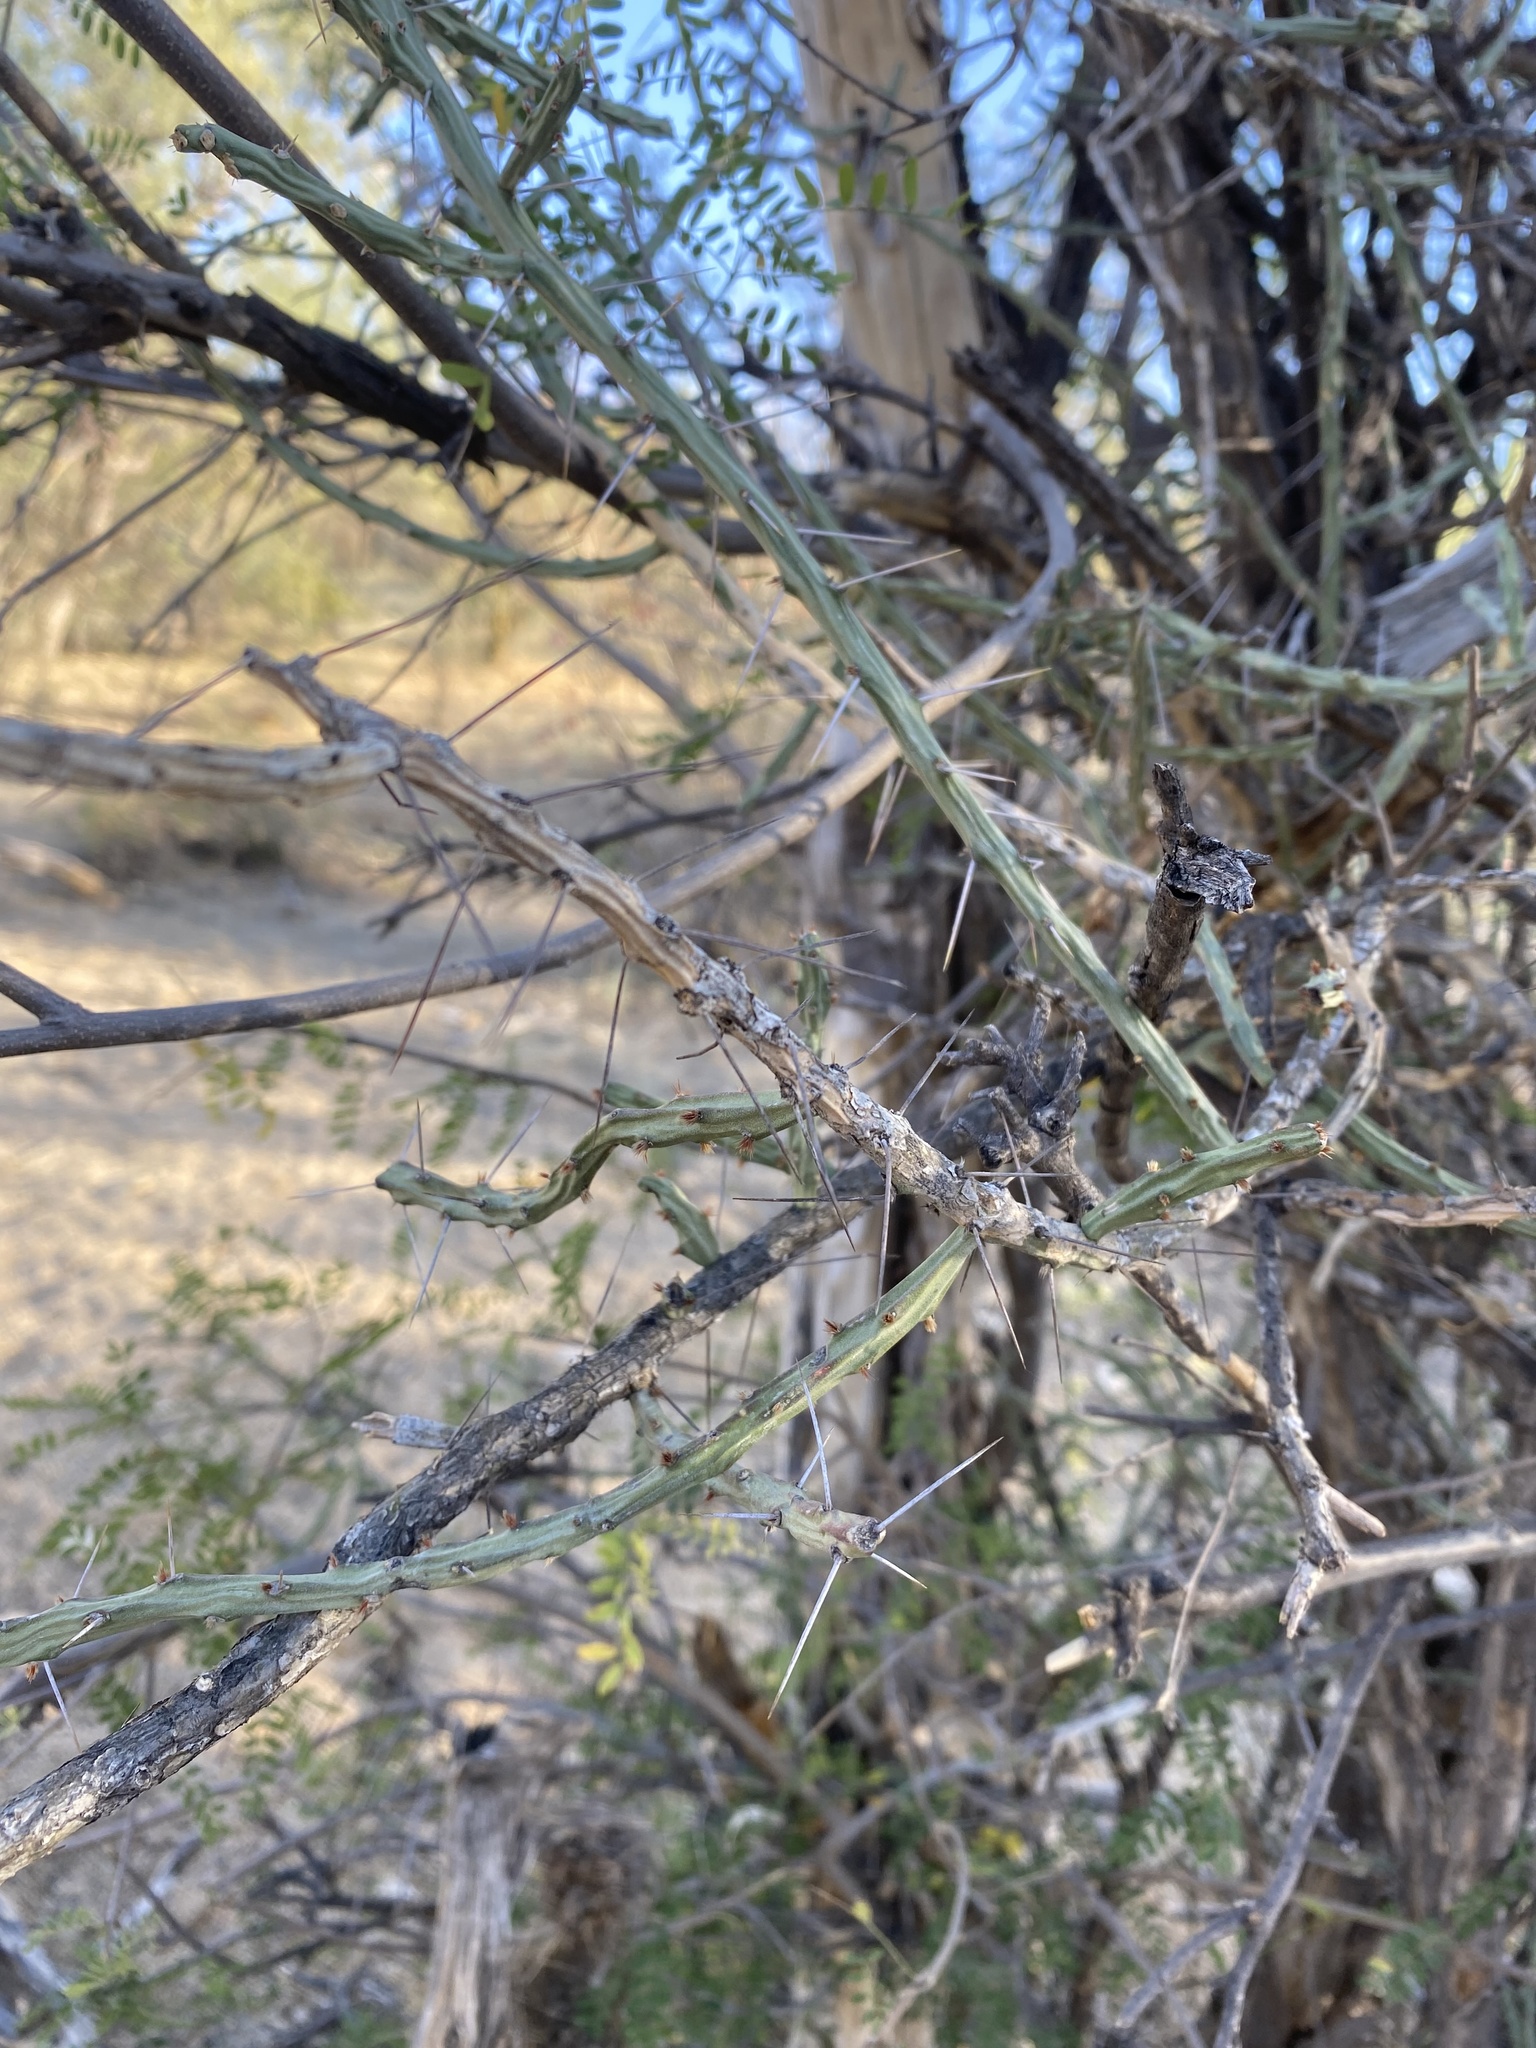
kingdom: Plantae
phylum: Tracheophyta
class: Magnoliopsida
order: Caryophyllales
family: Cactaceae
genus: Cylindropuntia
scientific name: Cylindropuntia leptocaulis
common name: Christmas cactus
